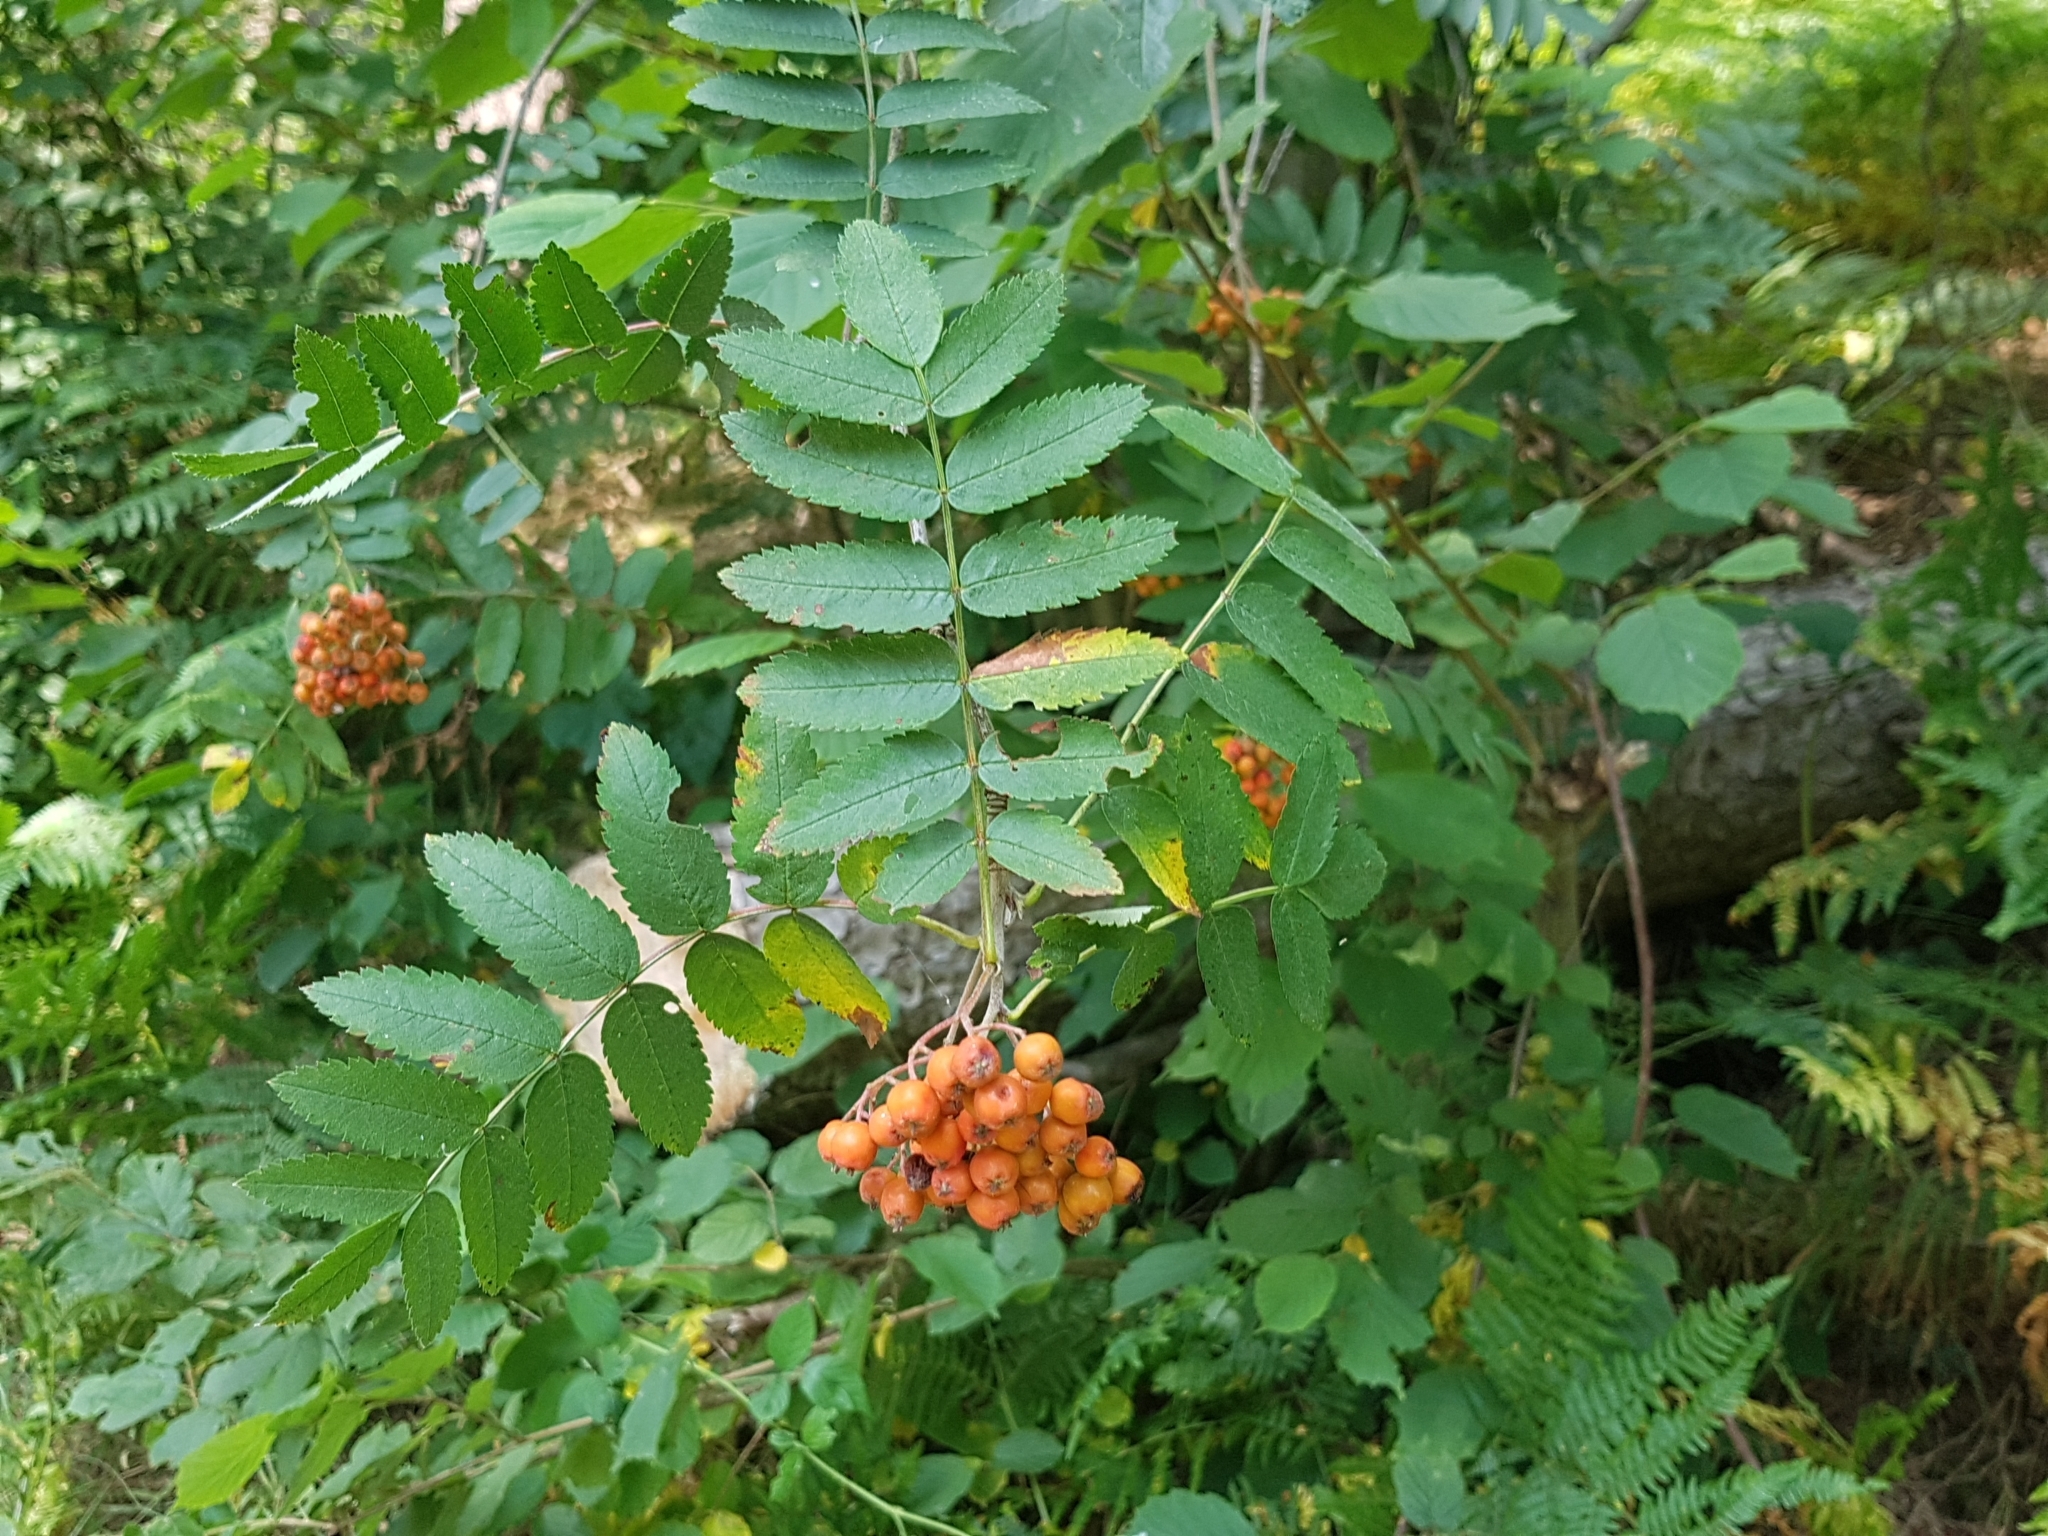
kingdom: Plantae
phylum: Tracheophyta
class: Magnoliopsida
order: Rosales
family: Rosaceae
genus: Sorbus
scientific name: Sorbus aucuparia
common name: Rowan
